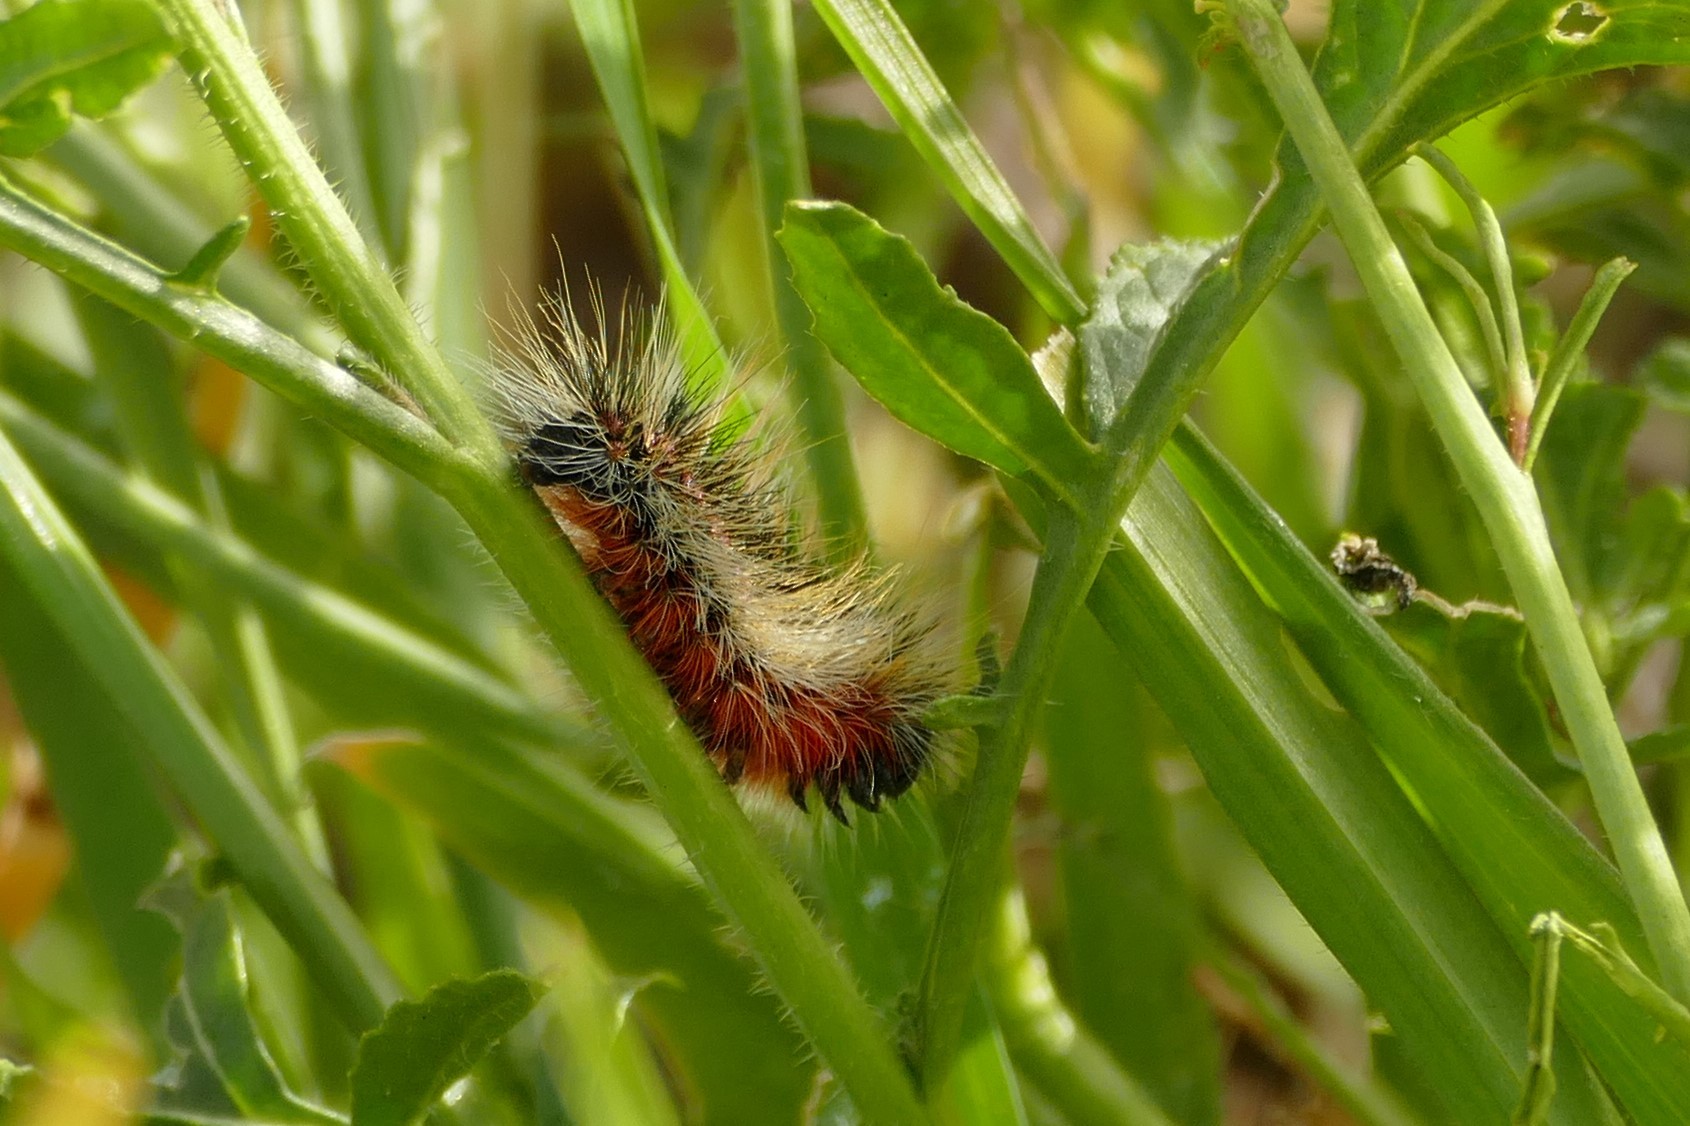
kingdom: Animalia
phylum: Arthropoda
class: Insecta
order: Lepidoptera
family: Lasiocampidae
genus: Chondrostega
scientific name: Chondrostega vandalicia
